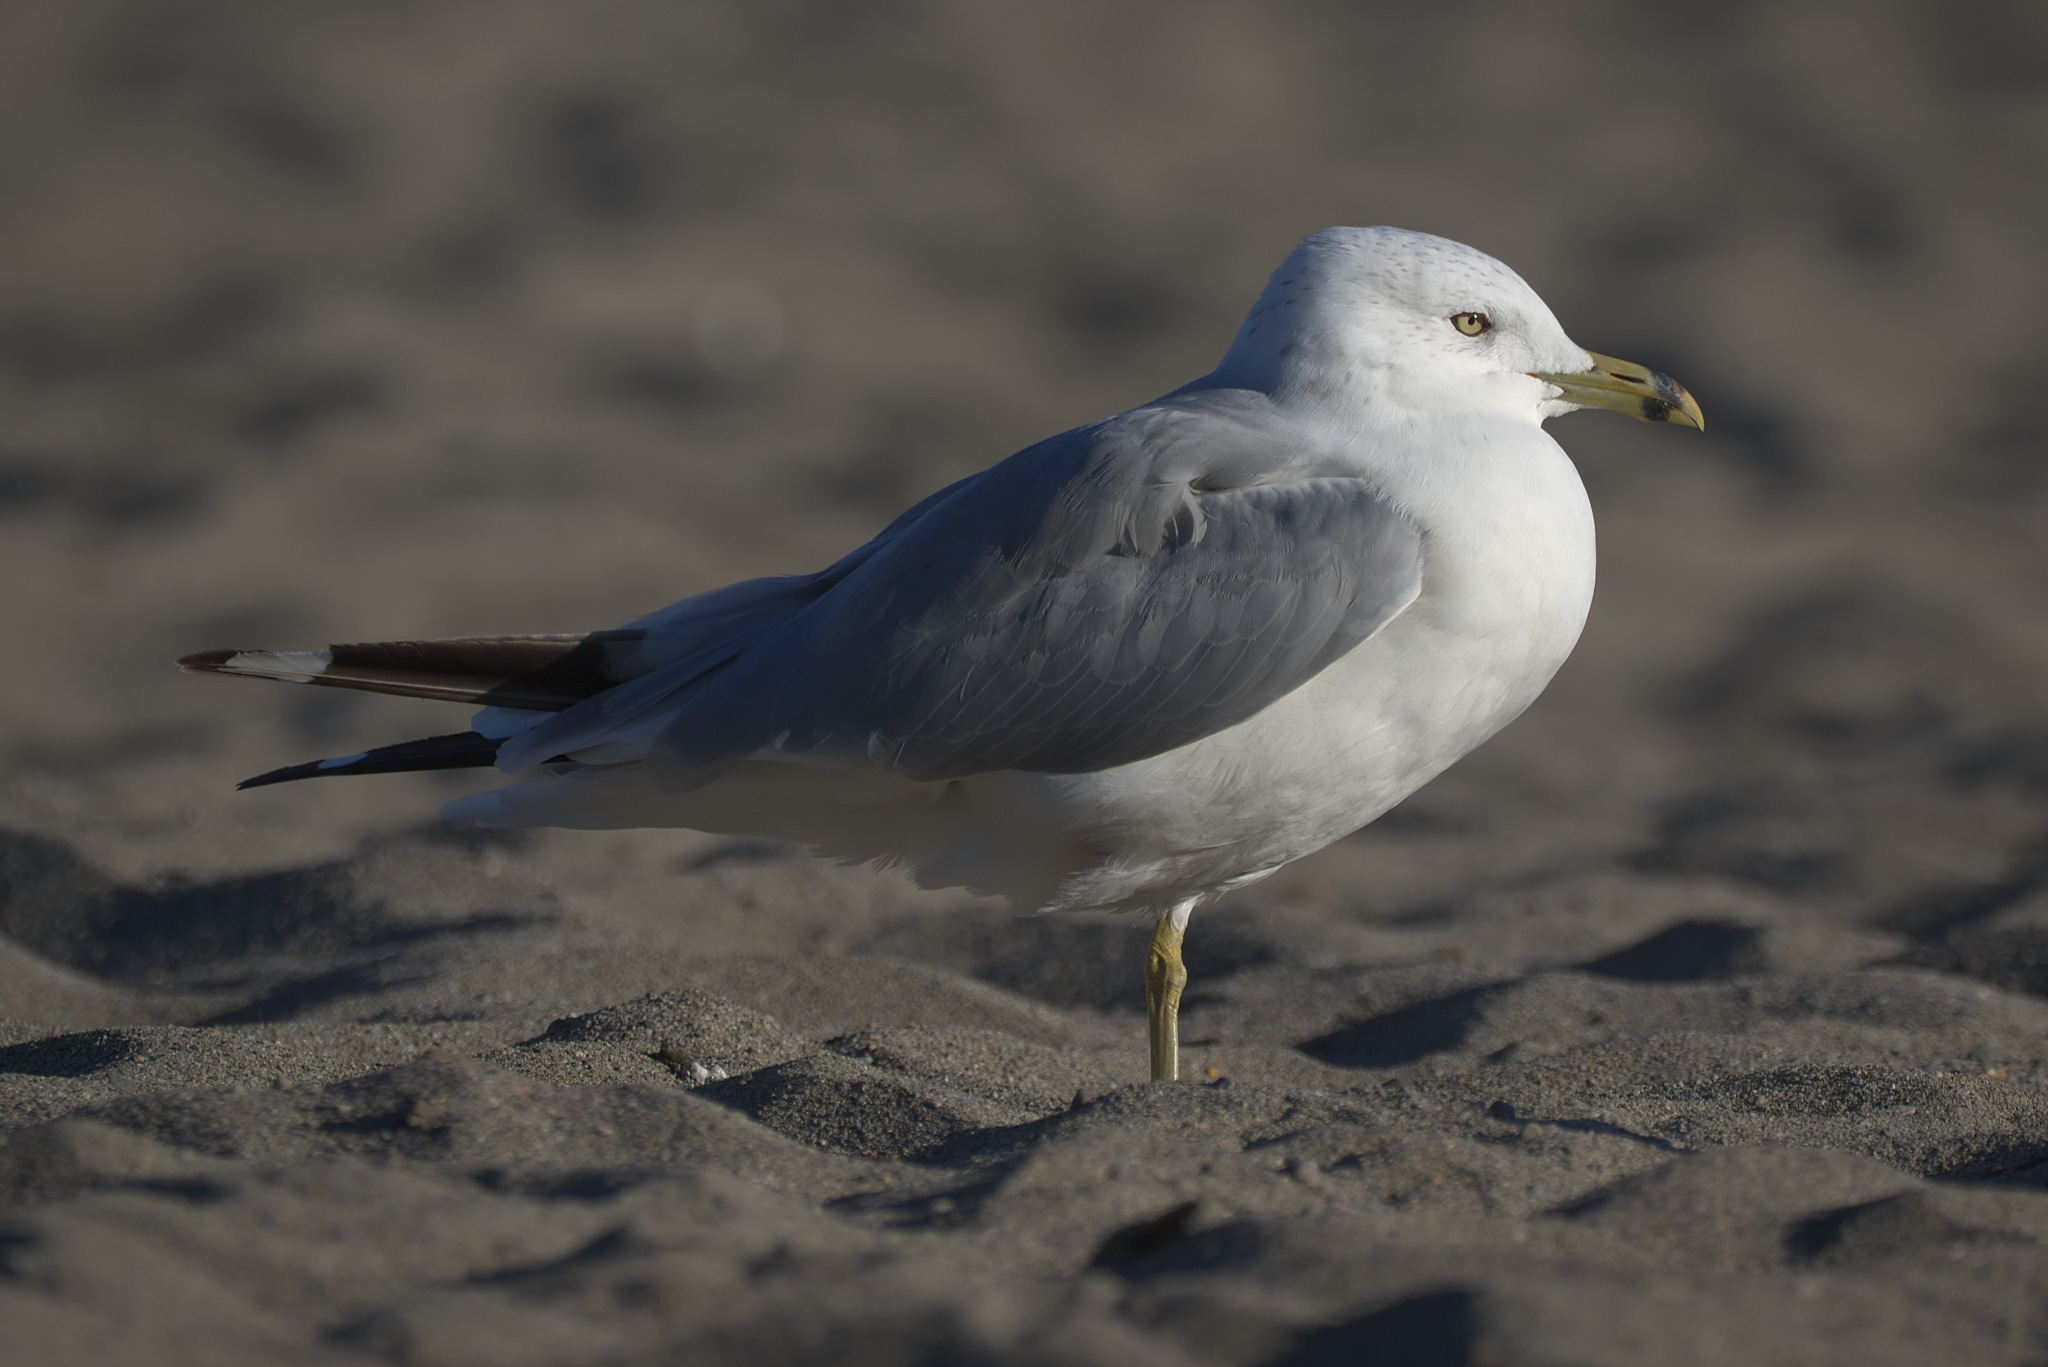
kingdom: Animalia
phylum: Chordata
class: Aves
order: Charadriiformes
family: Laridae
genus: Larus
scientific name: Larus delawarensis
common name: Ring-billed gull
